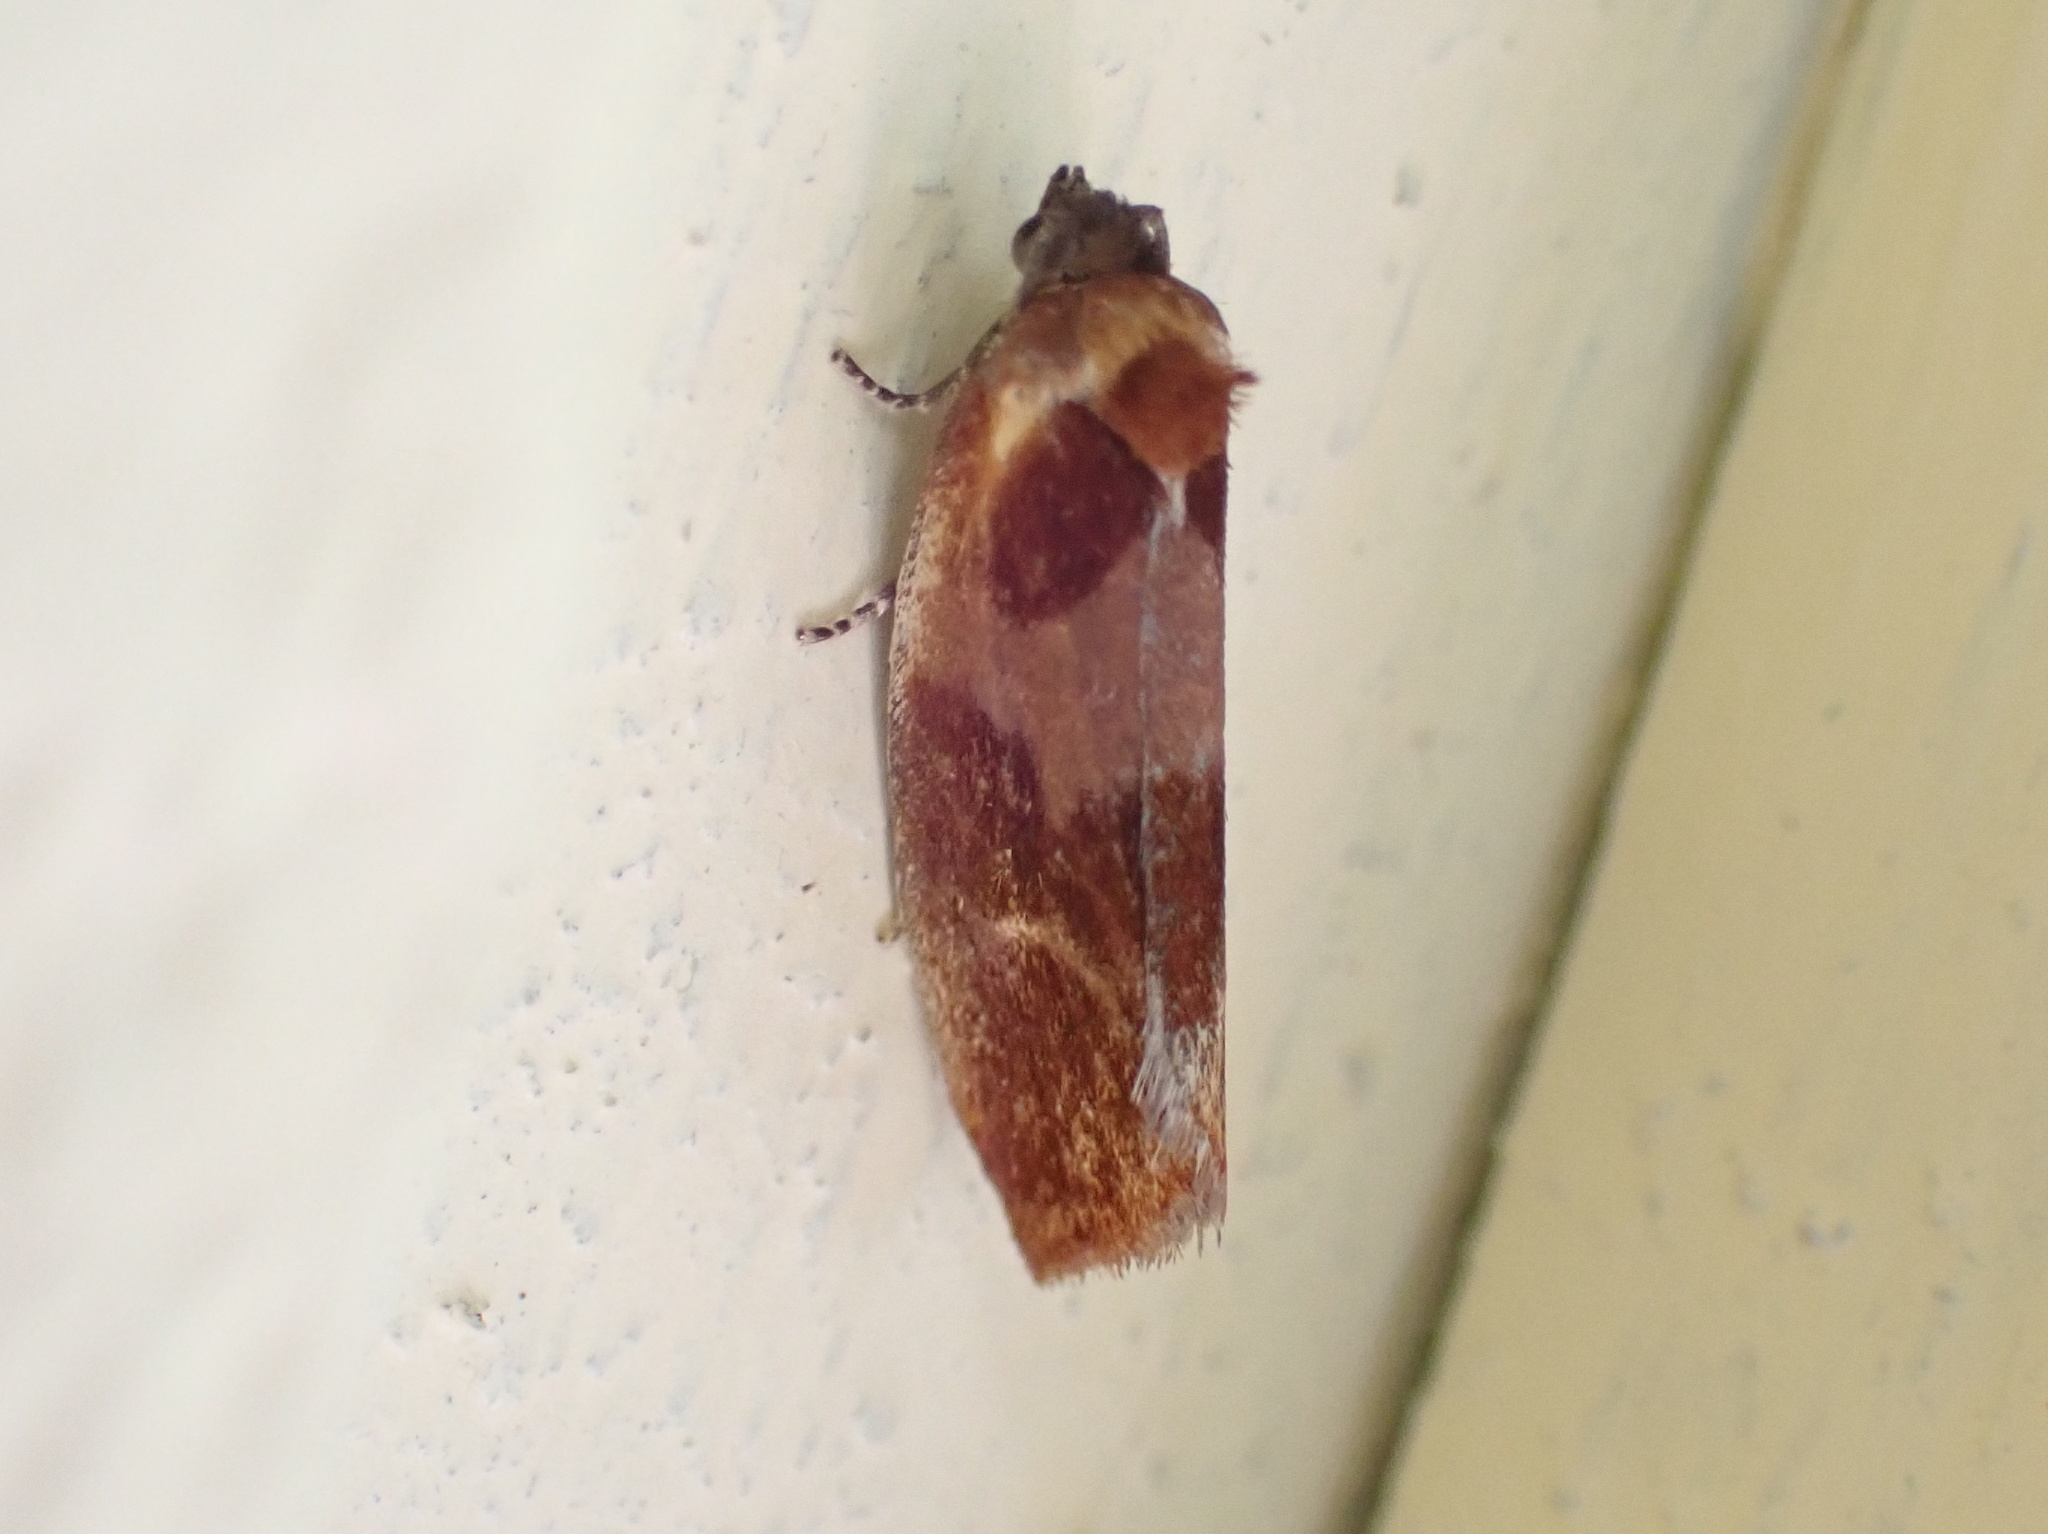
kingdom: Animalia
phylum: Arthropoda
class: Insecta
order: Lepidoptera
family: Tortricidae
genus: Eulia
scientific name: Eulia ministrana
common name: Brassy twist
